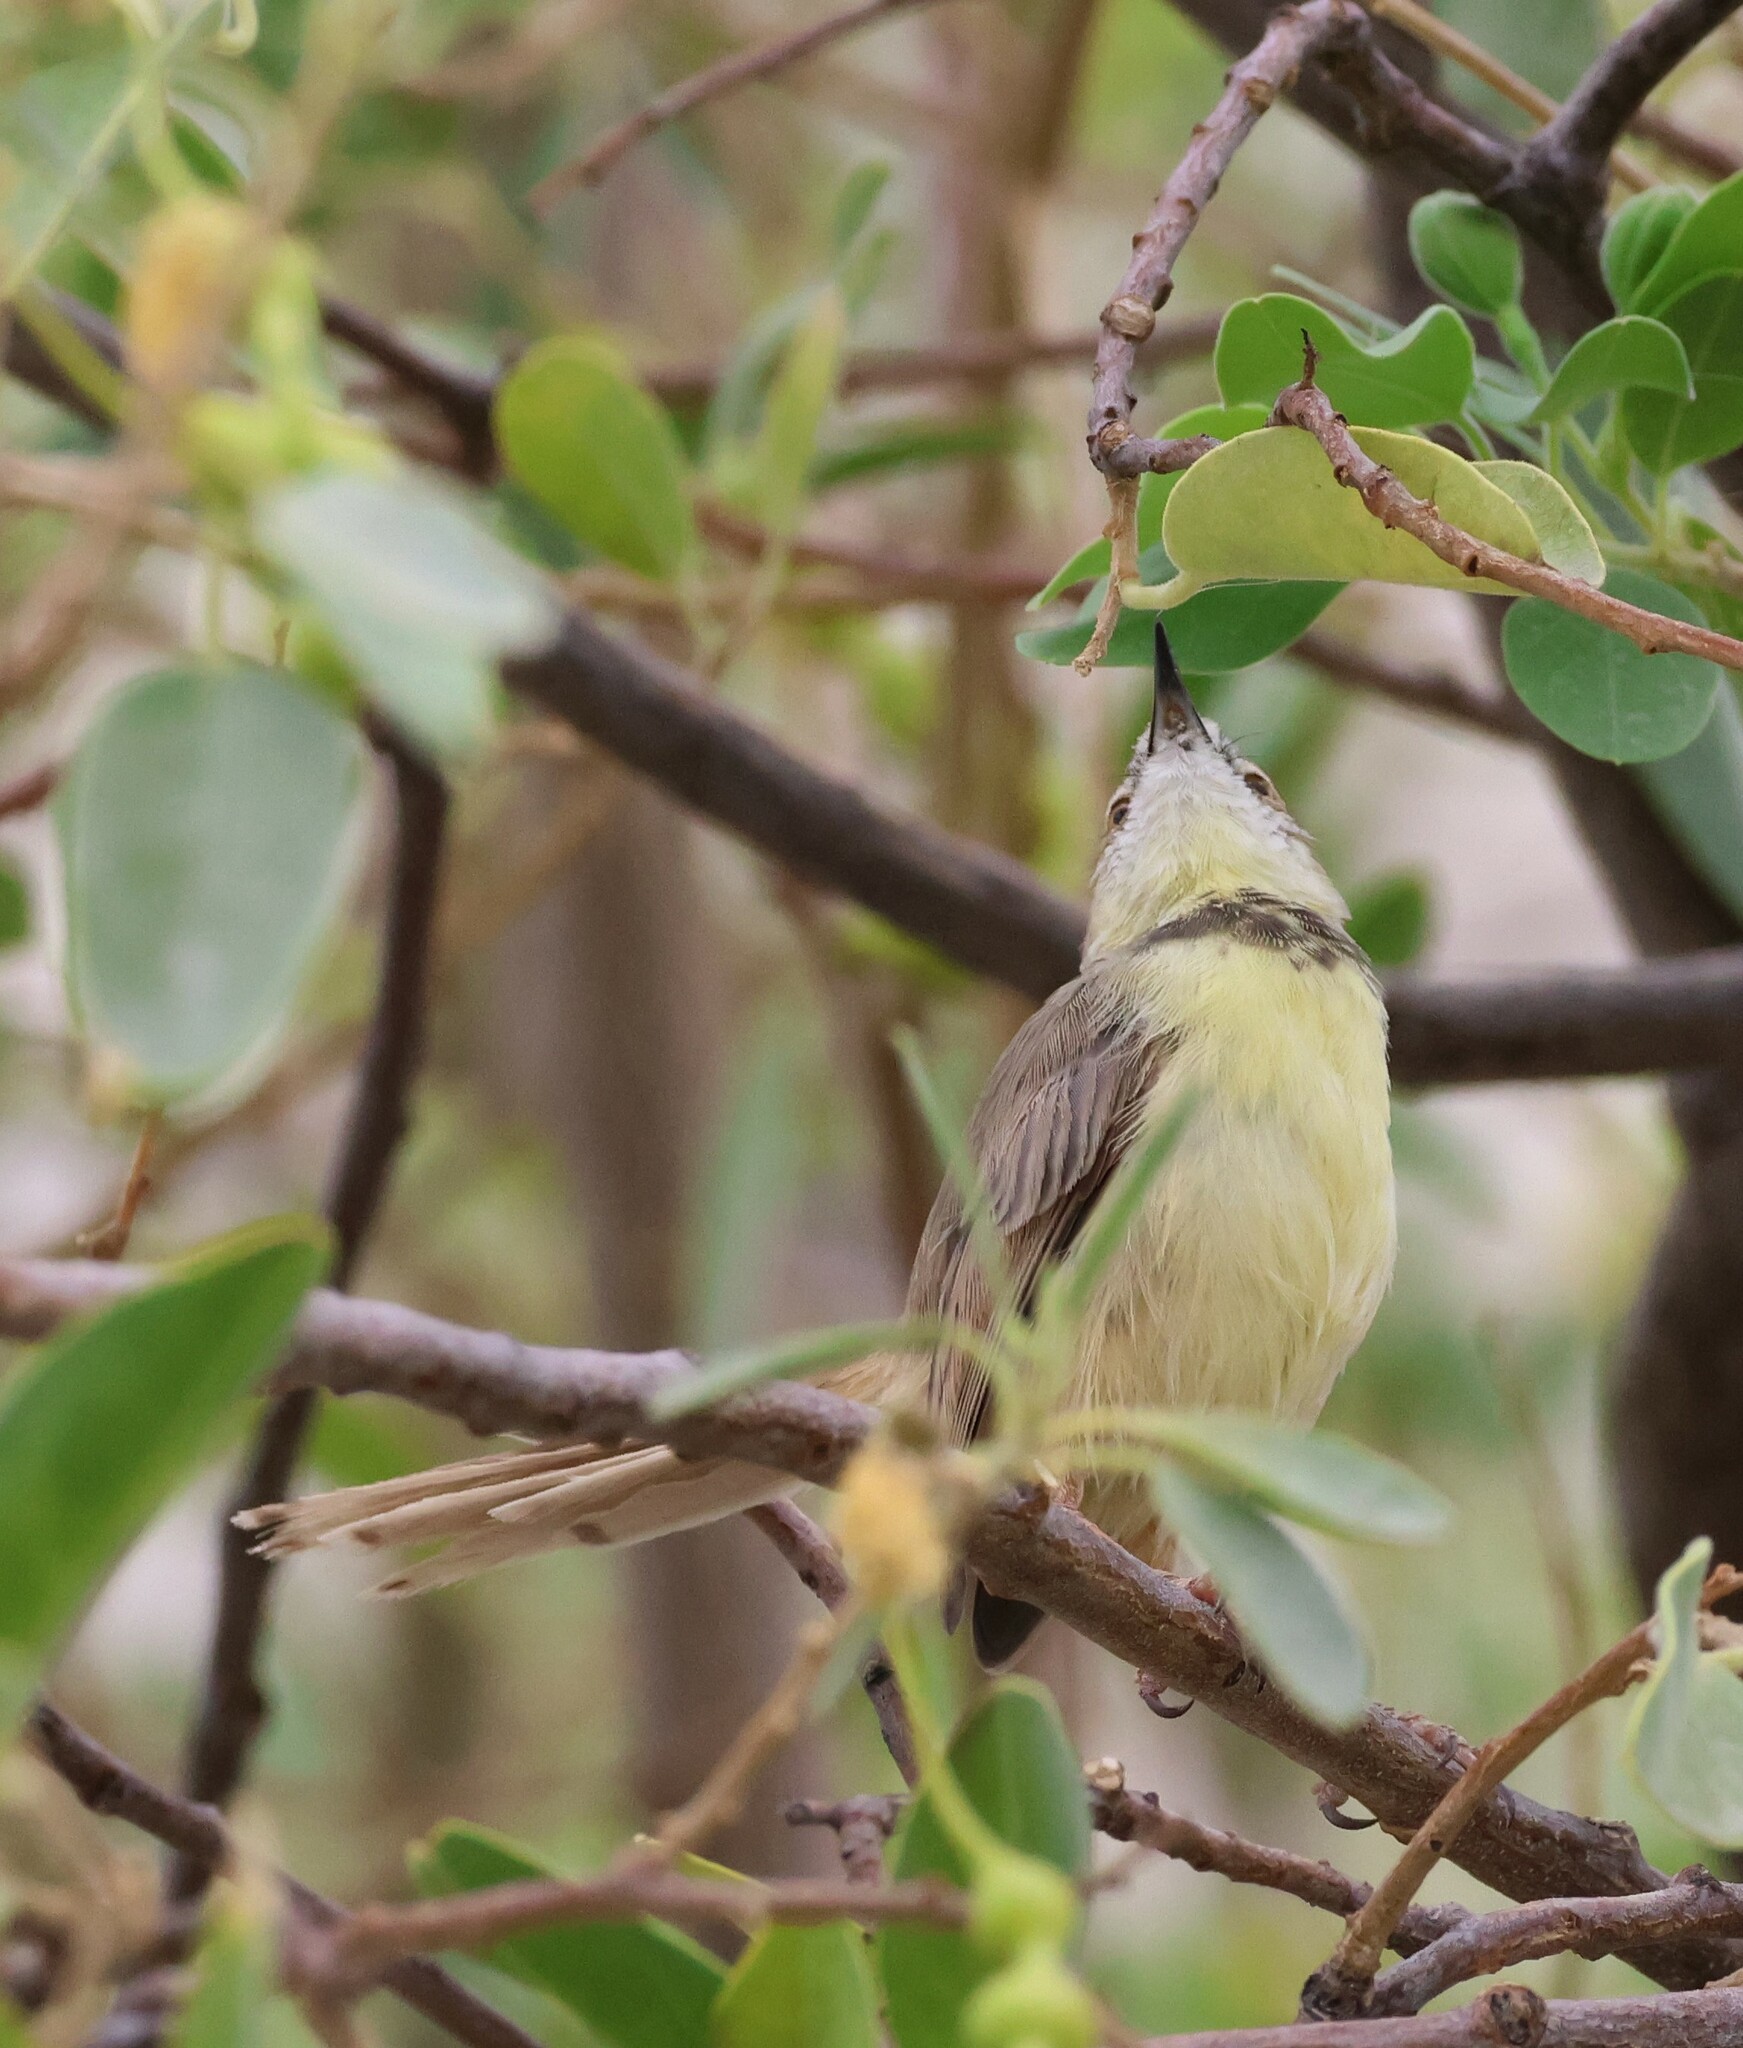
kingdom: Animalia
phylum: Chordata
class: Aves
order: Passeriformes
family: Cisticolidae
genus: Prinia
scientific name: Prinia flavicans
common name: Black-chested prinia
